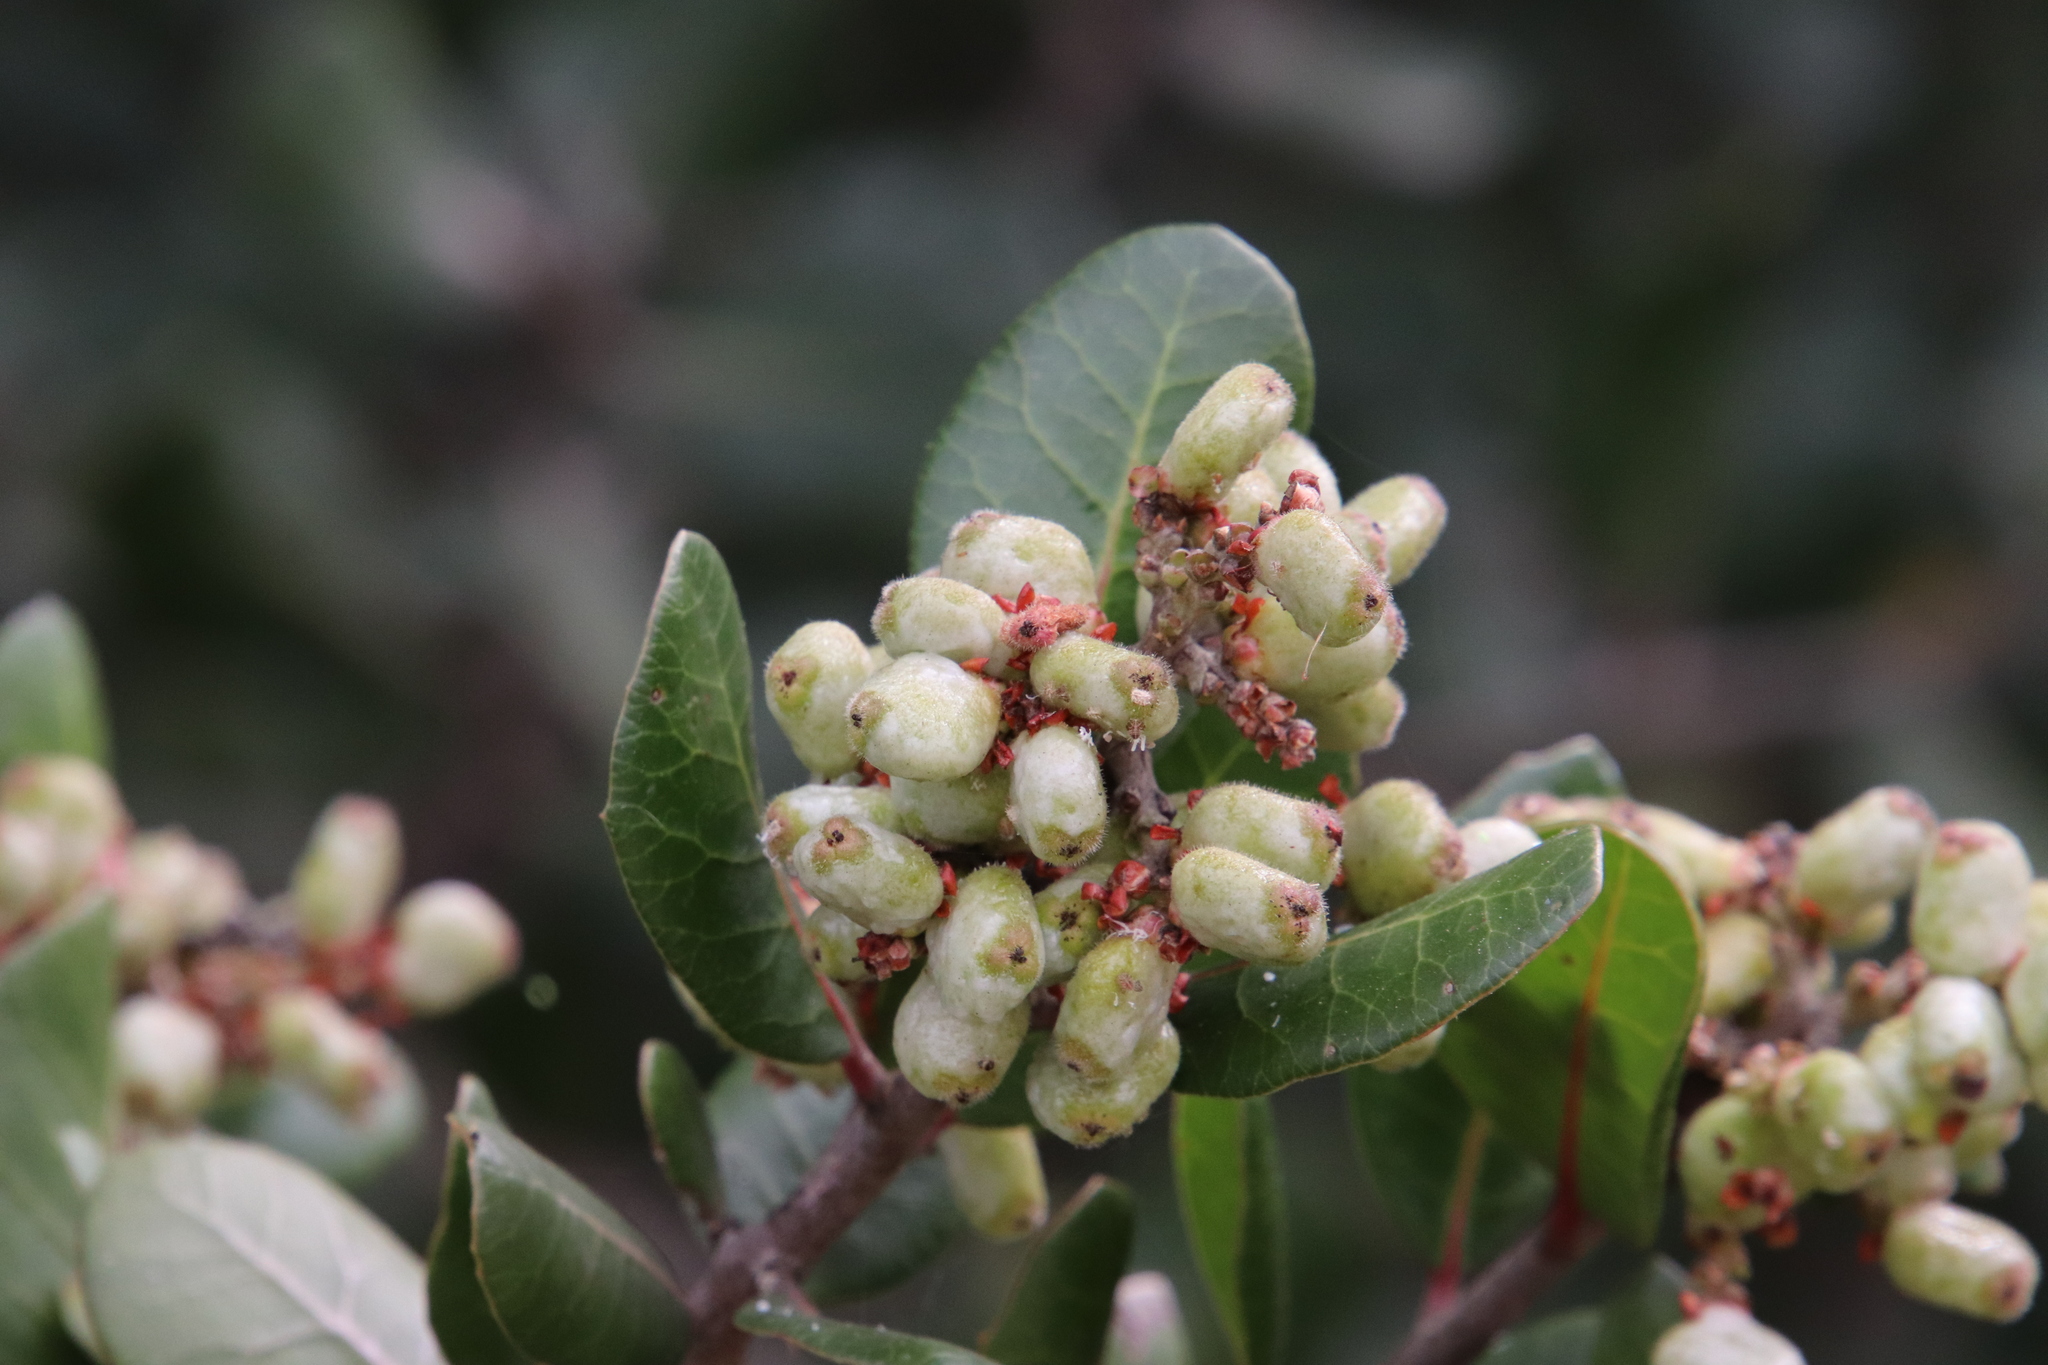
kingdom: Plantae
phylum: Tracheophyta
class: Magnoliopsida
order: Sapindales
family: Anacardiaceae
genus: Rhus
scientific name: Rhus integrifolia
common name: Lemonade sumac
